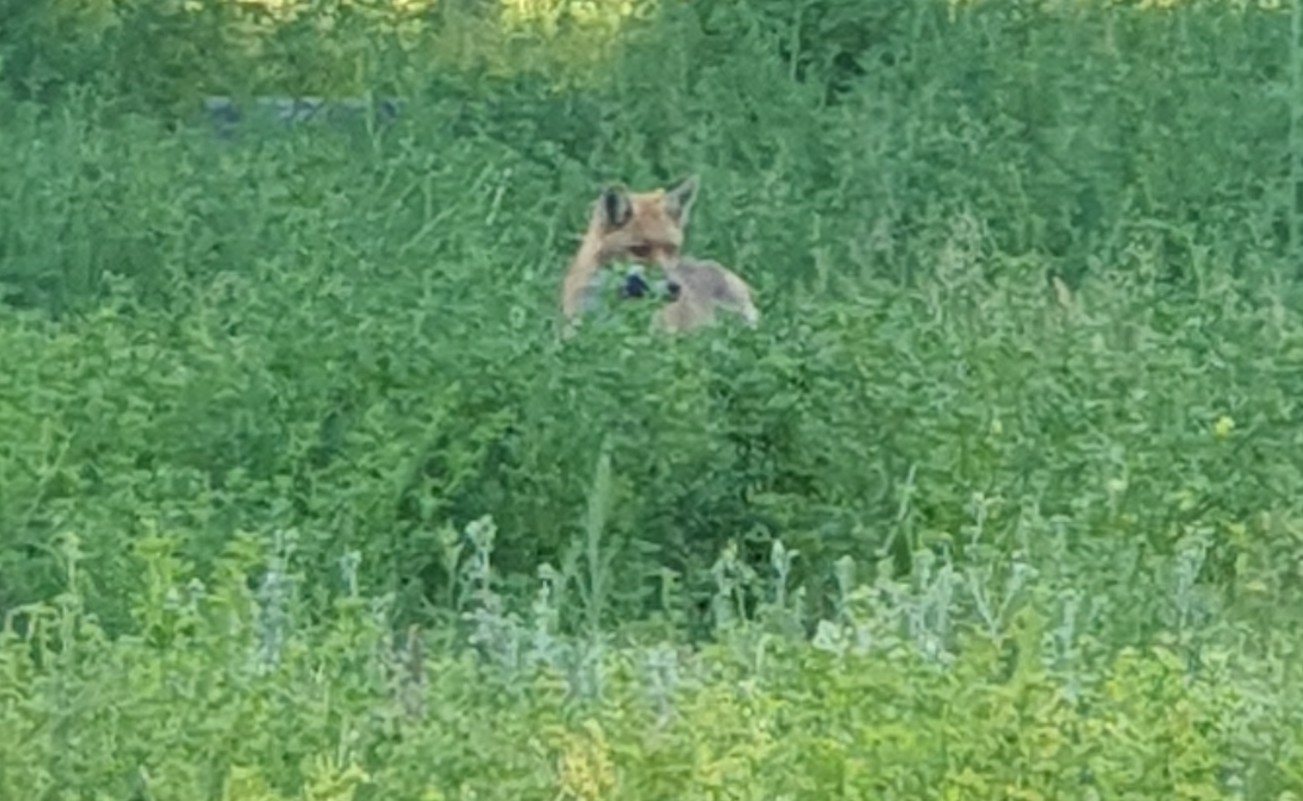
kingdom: Animalia
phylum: Chordata
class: Mammalia
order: Carnivora
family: Canidae
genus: Vulpes
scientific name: Vulpes vulpes
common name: Red fox
